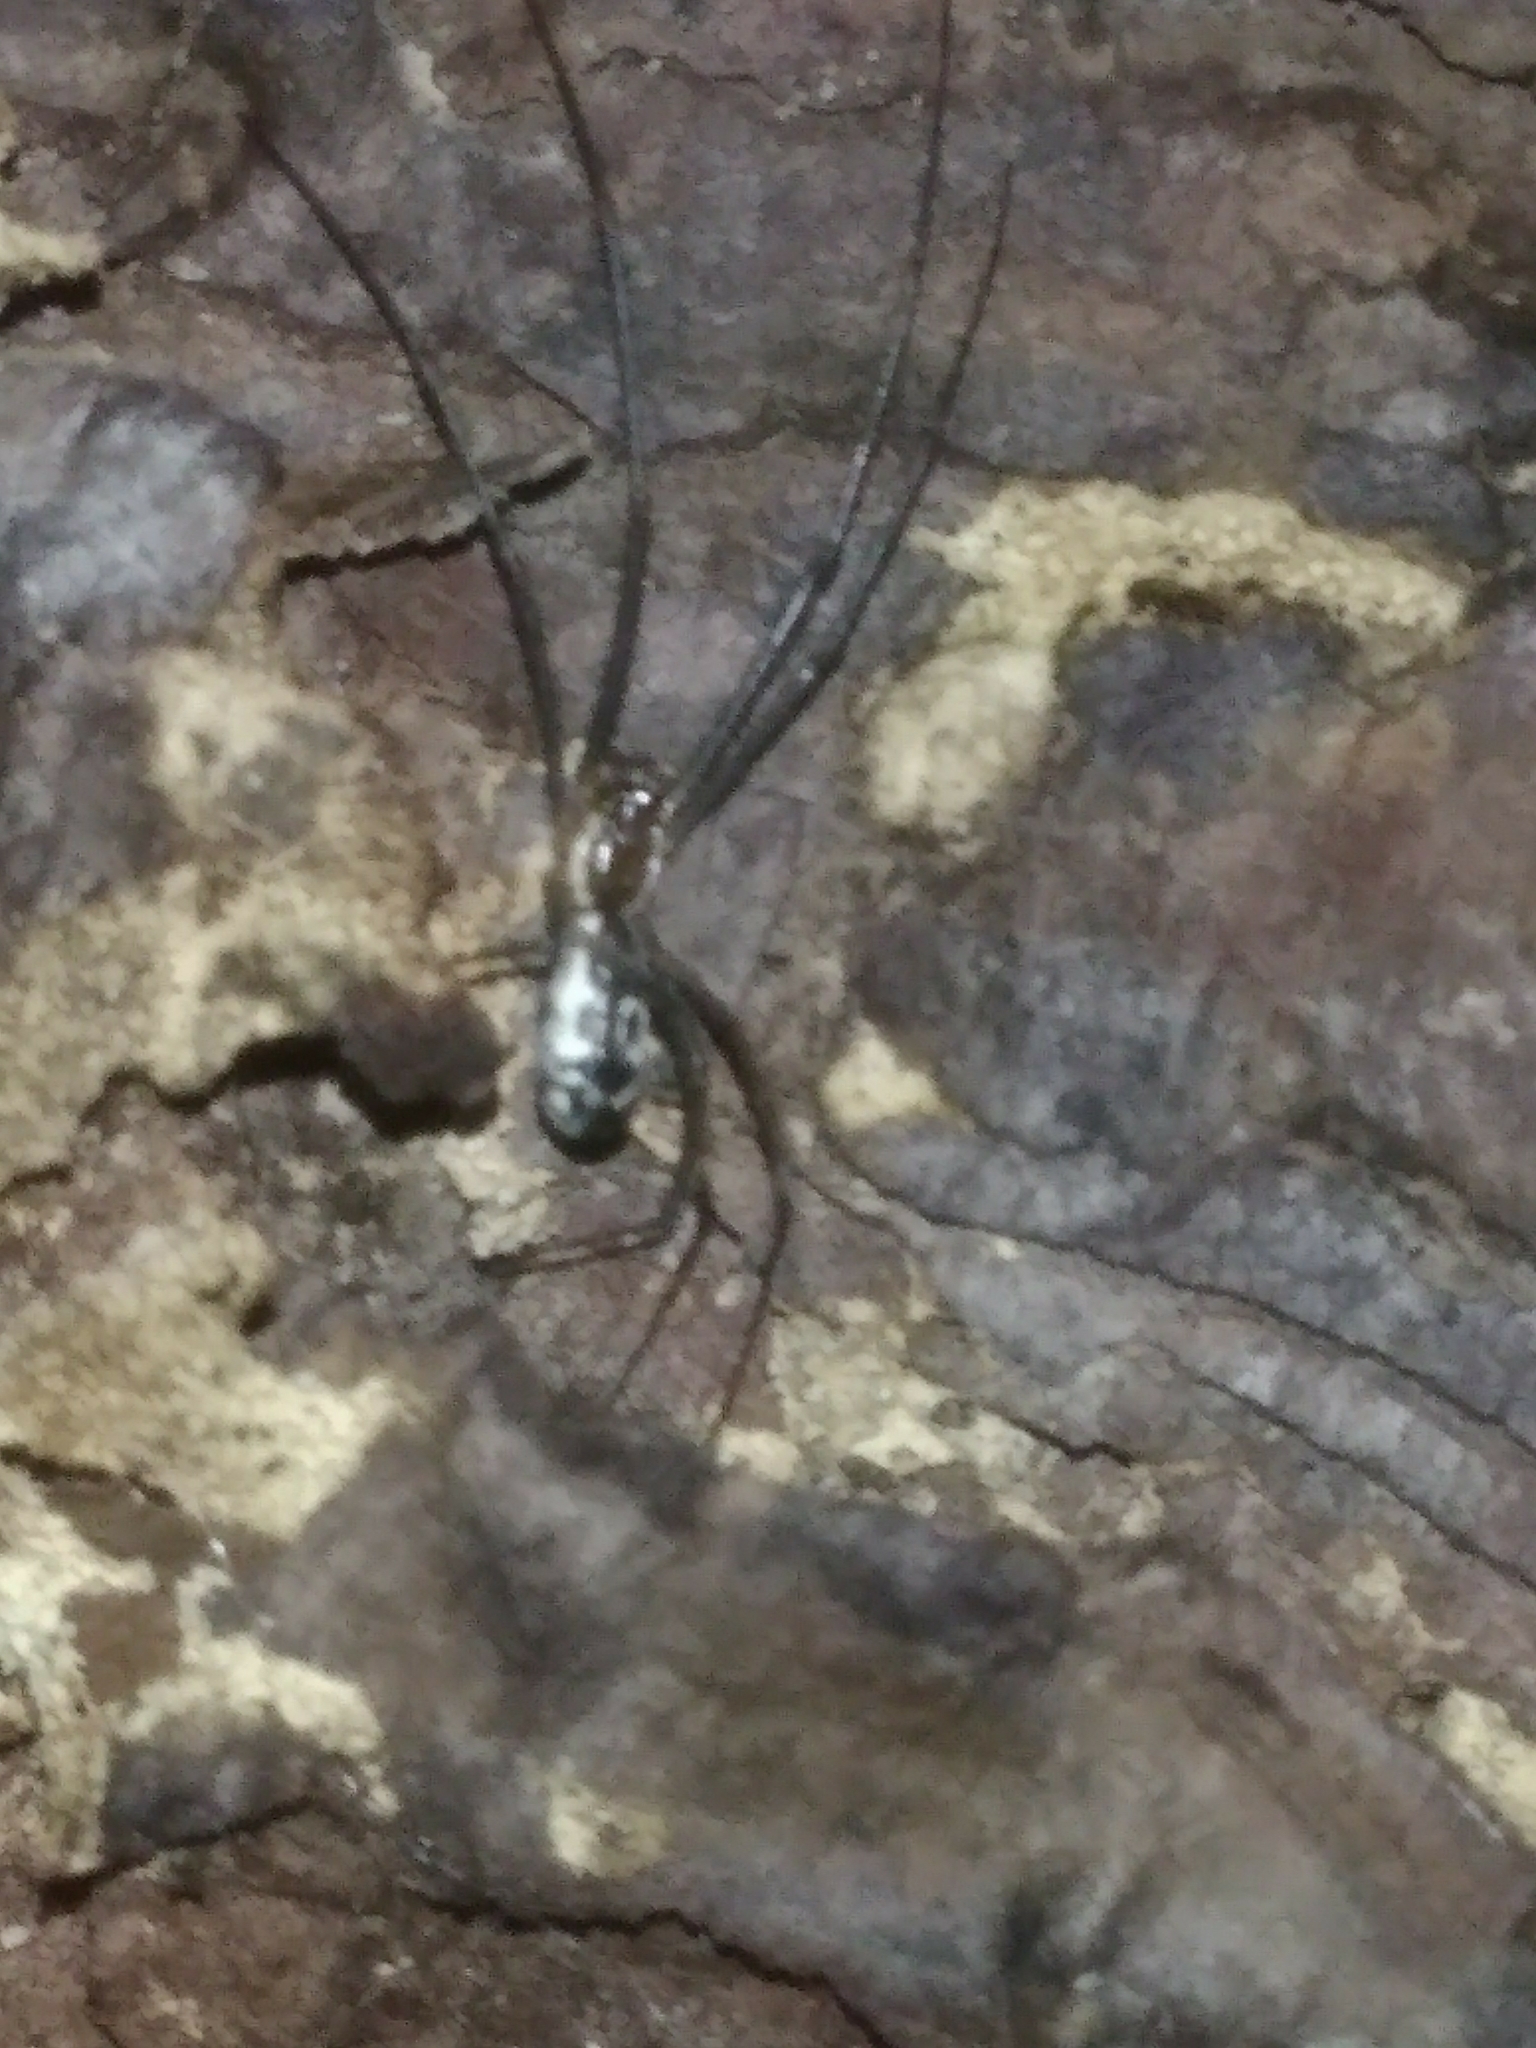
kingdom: Animalia
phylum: Arthropoda
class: Arachnida
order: Araneae
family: Linyphiidae
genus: Neriene
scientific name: Neriene radiata
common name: Filmy dome spider
